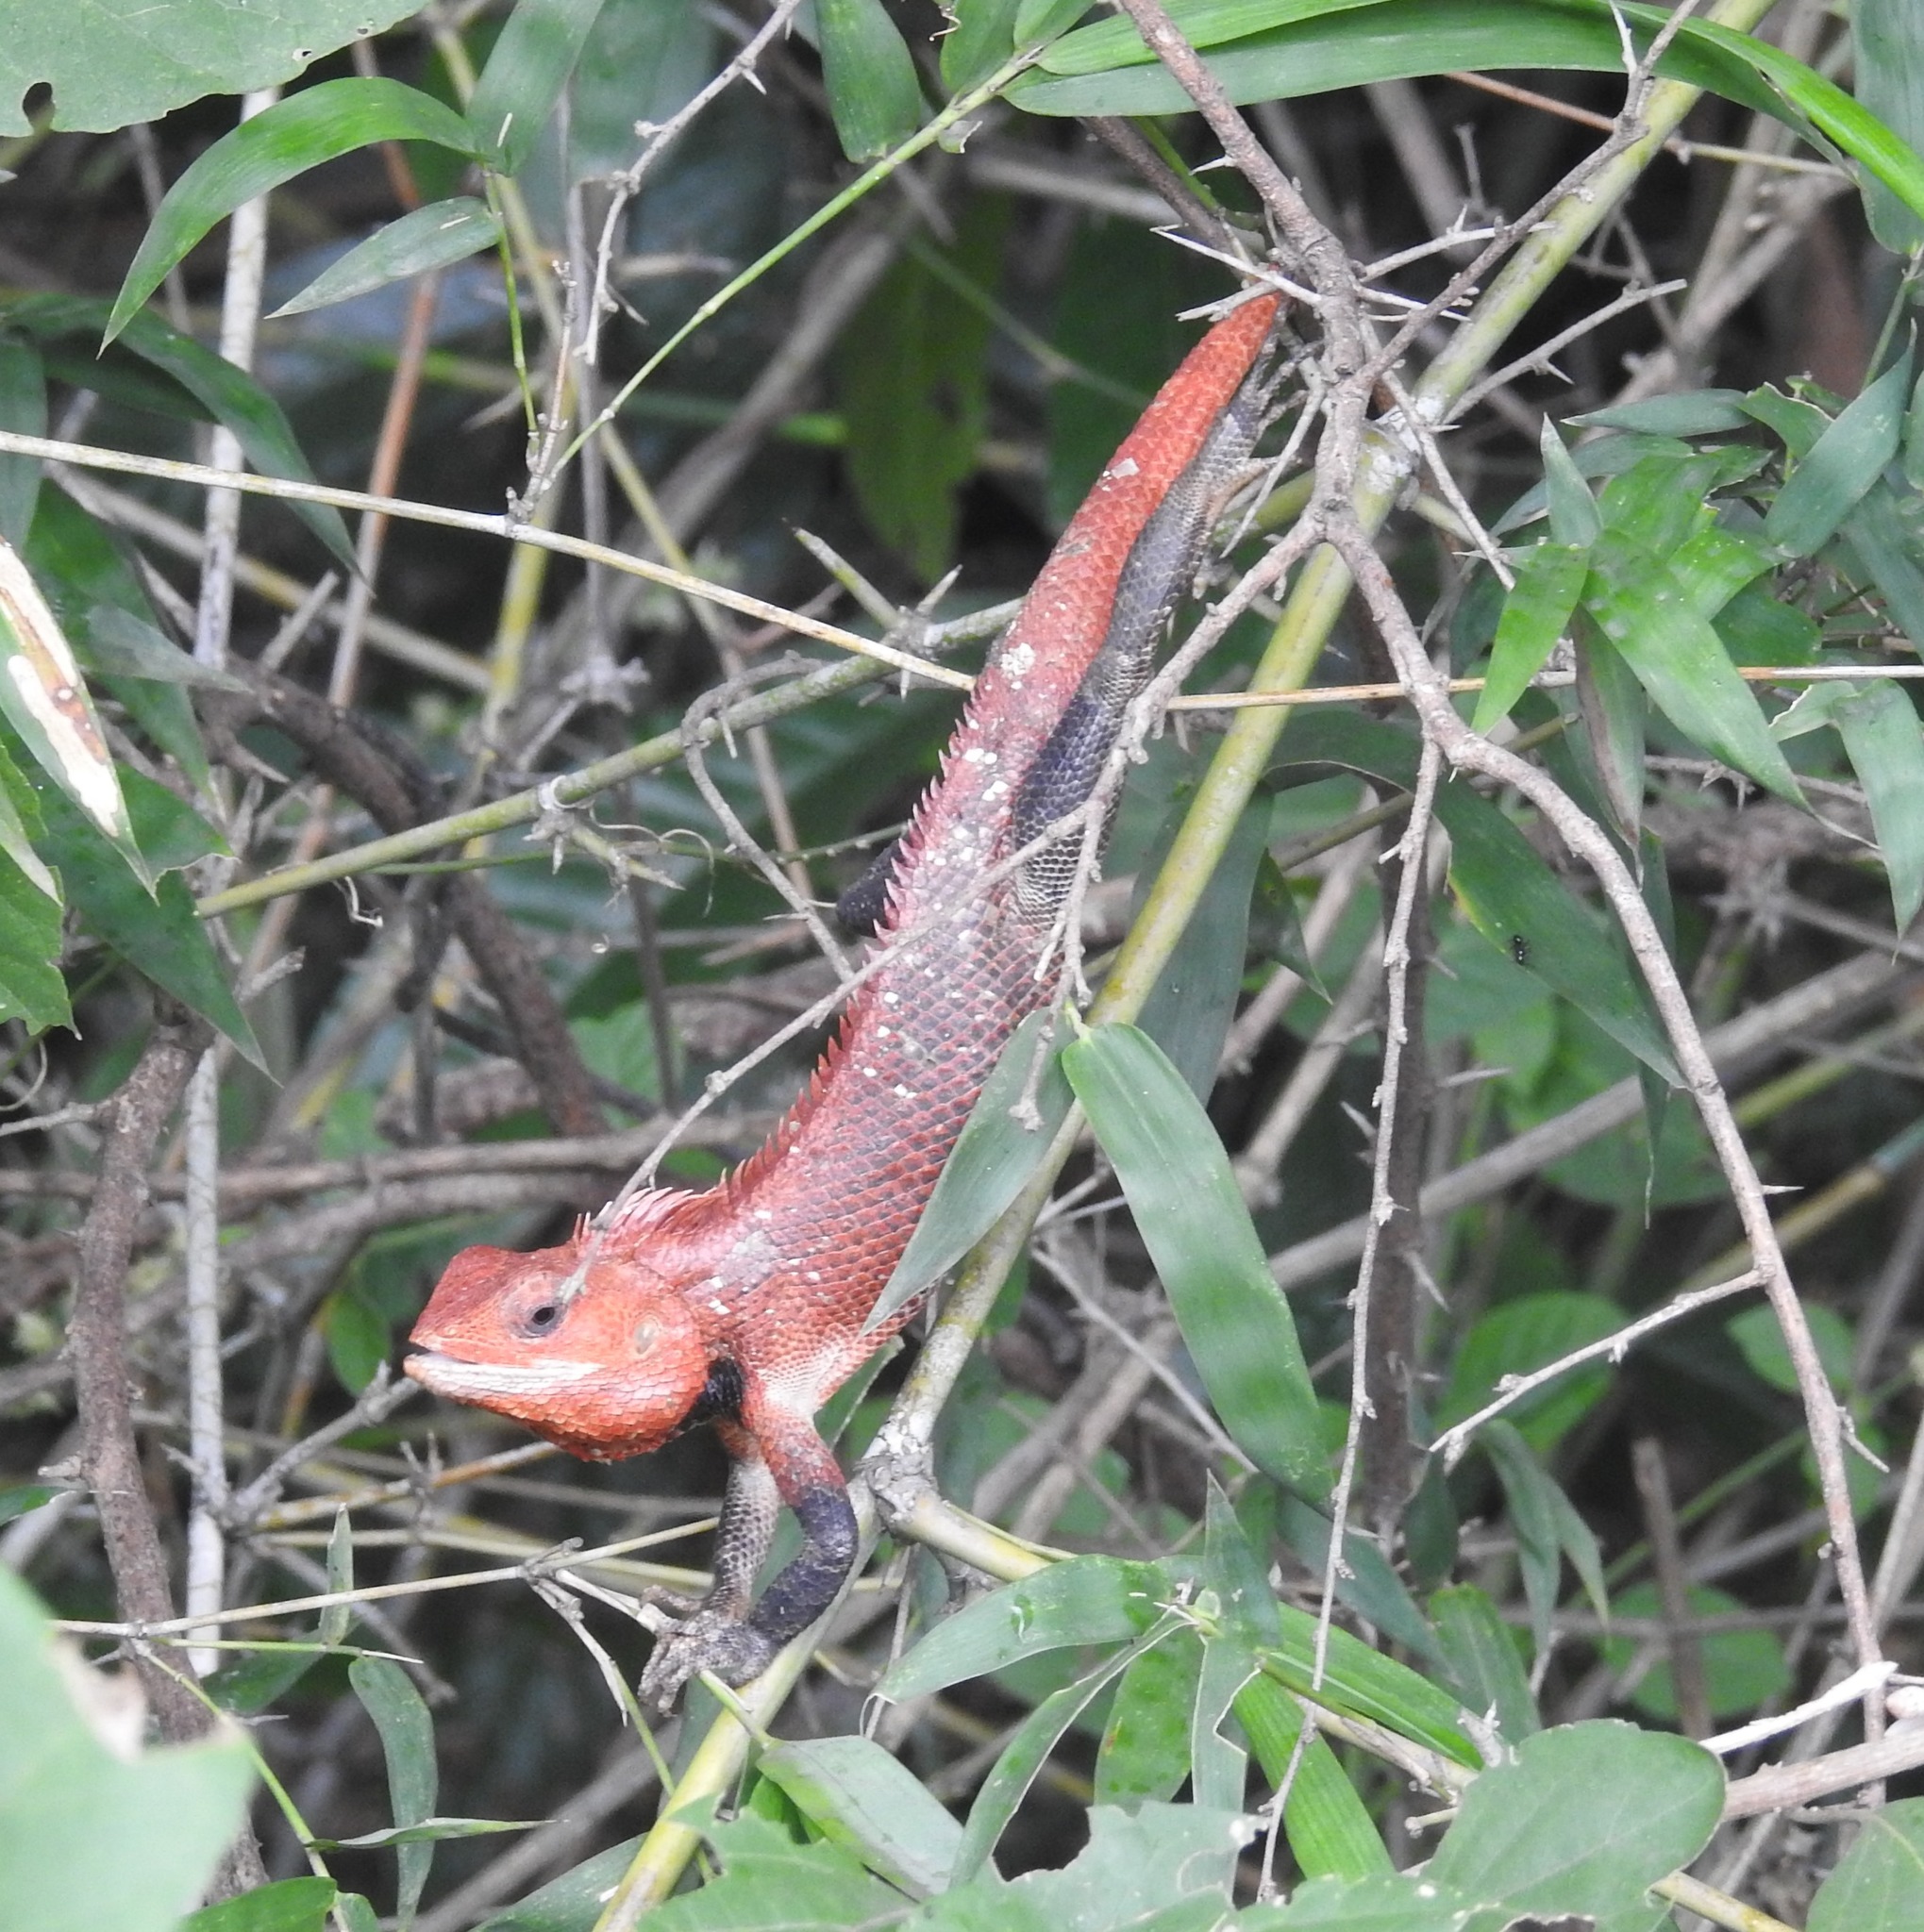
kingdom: Animalia
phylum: Chordata
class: Squamata
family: Agamidae
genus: Calotes
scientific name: Calotes versicolor
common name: Oriental garden lizard
